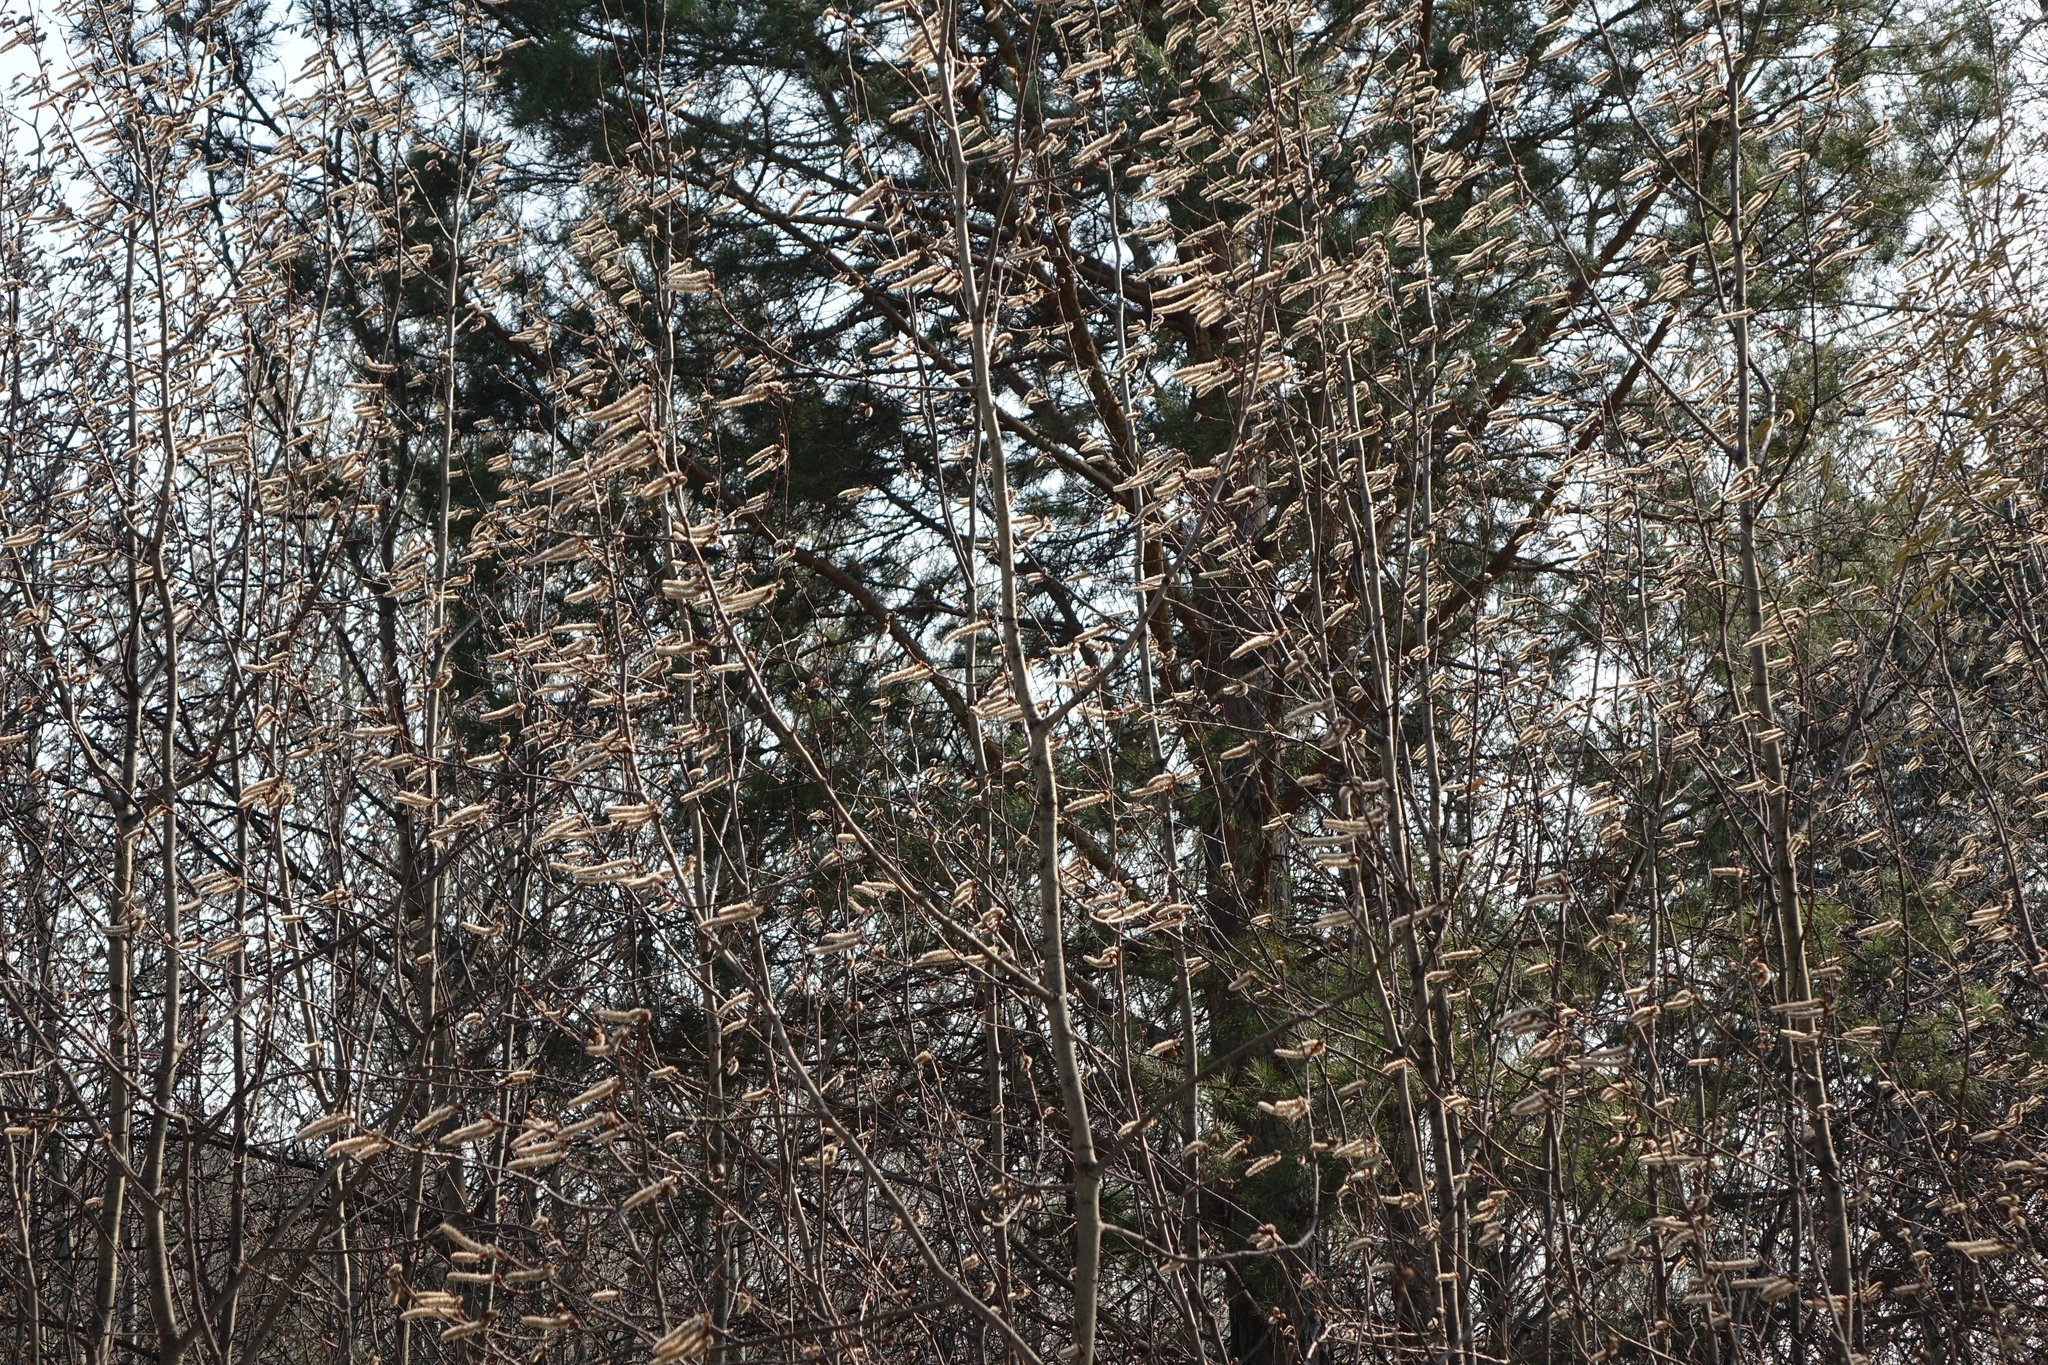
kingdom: Plantae
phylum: Tracheophyta
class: Magnoliopsida
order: Malpighiales
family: Salicaceae
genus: Populus
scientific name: Populus tremula
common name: European aspen
